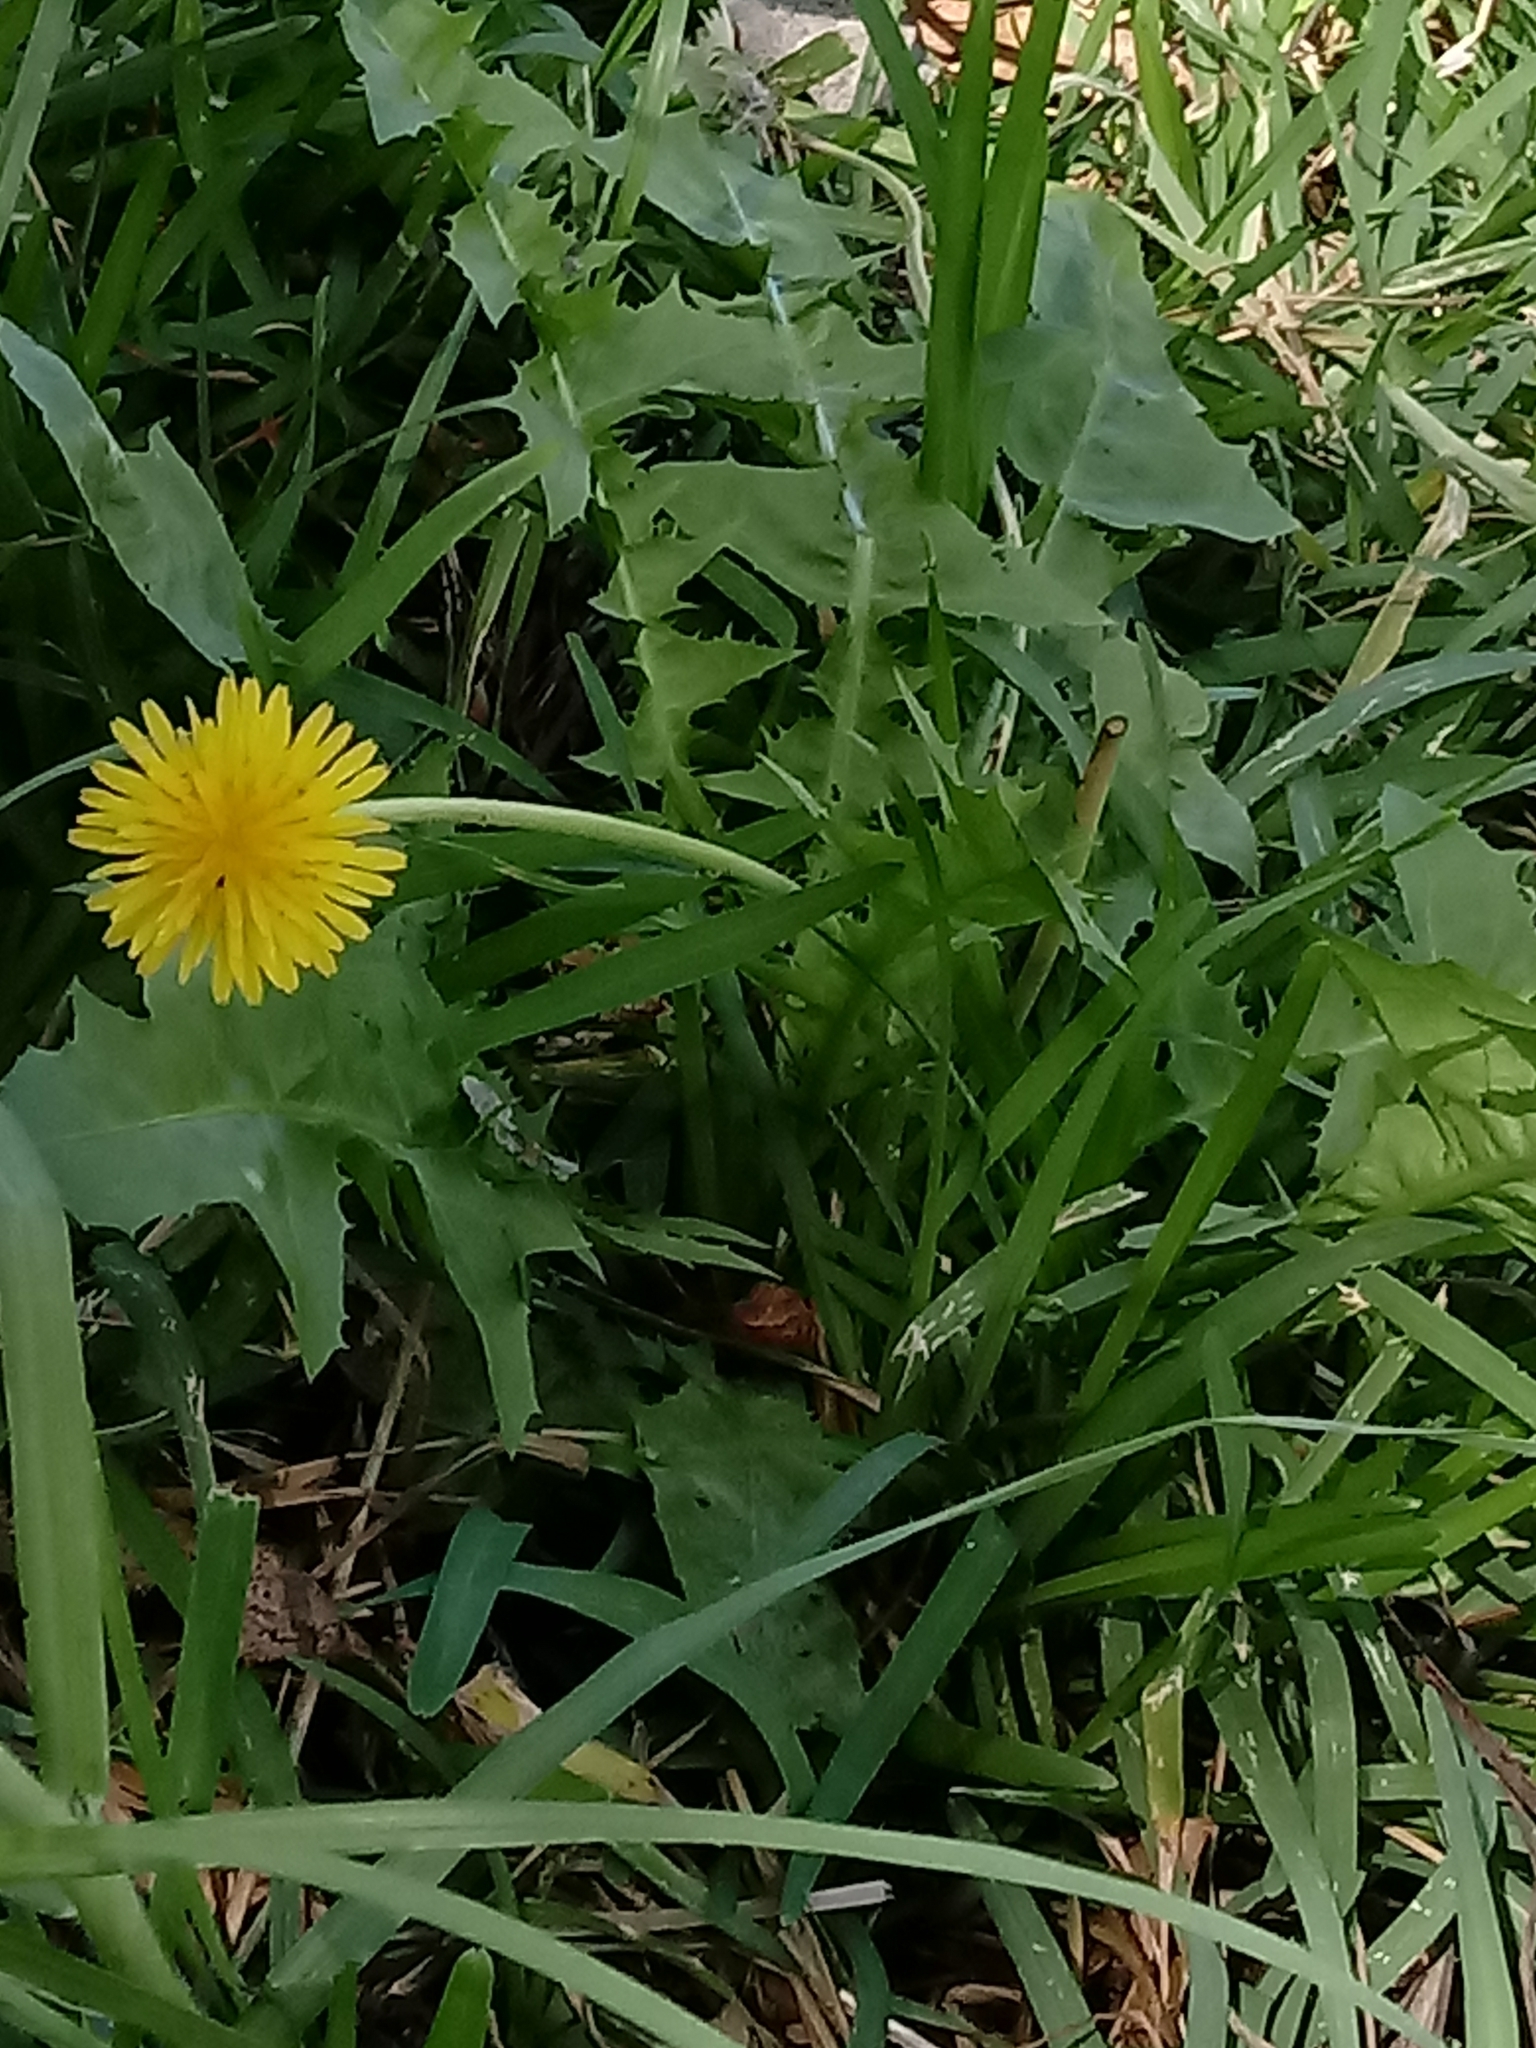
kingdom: Plantae
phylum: Tracheophyta
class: Magnoliopsida
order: Asterales
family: Asteraceae
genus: Sonchus
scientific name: Sonchus oleraceus
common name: Common sowthistle
